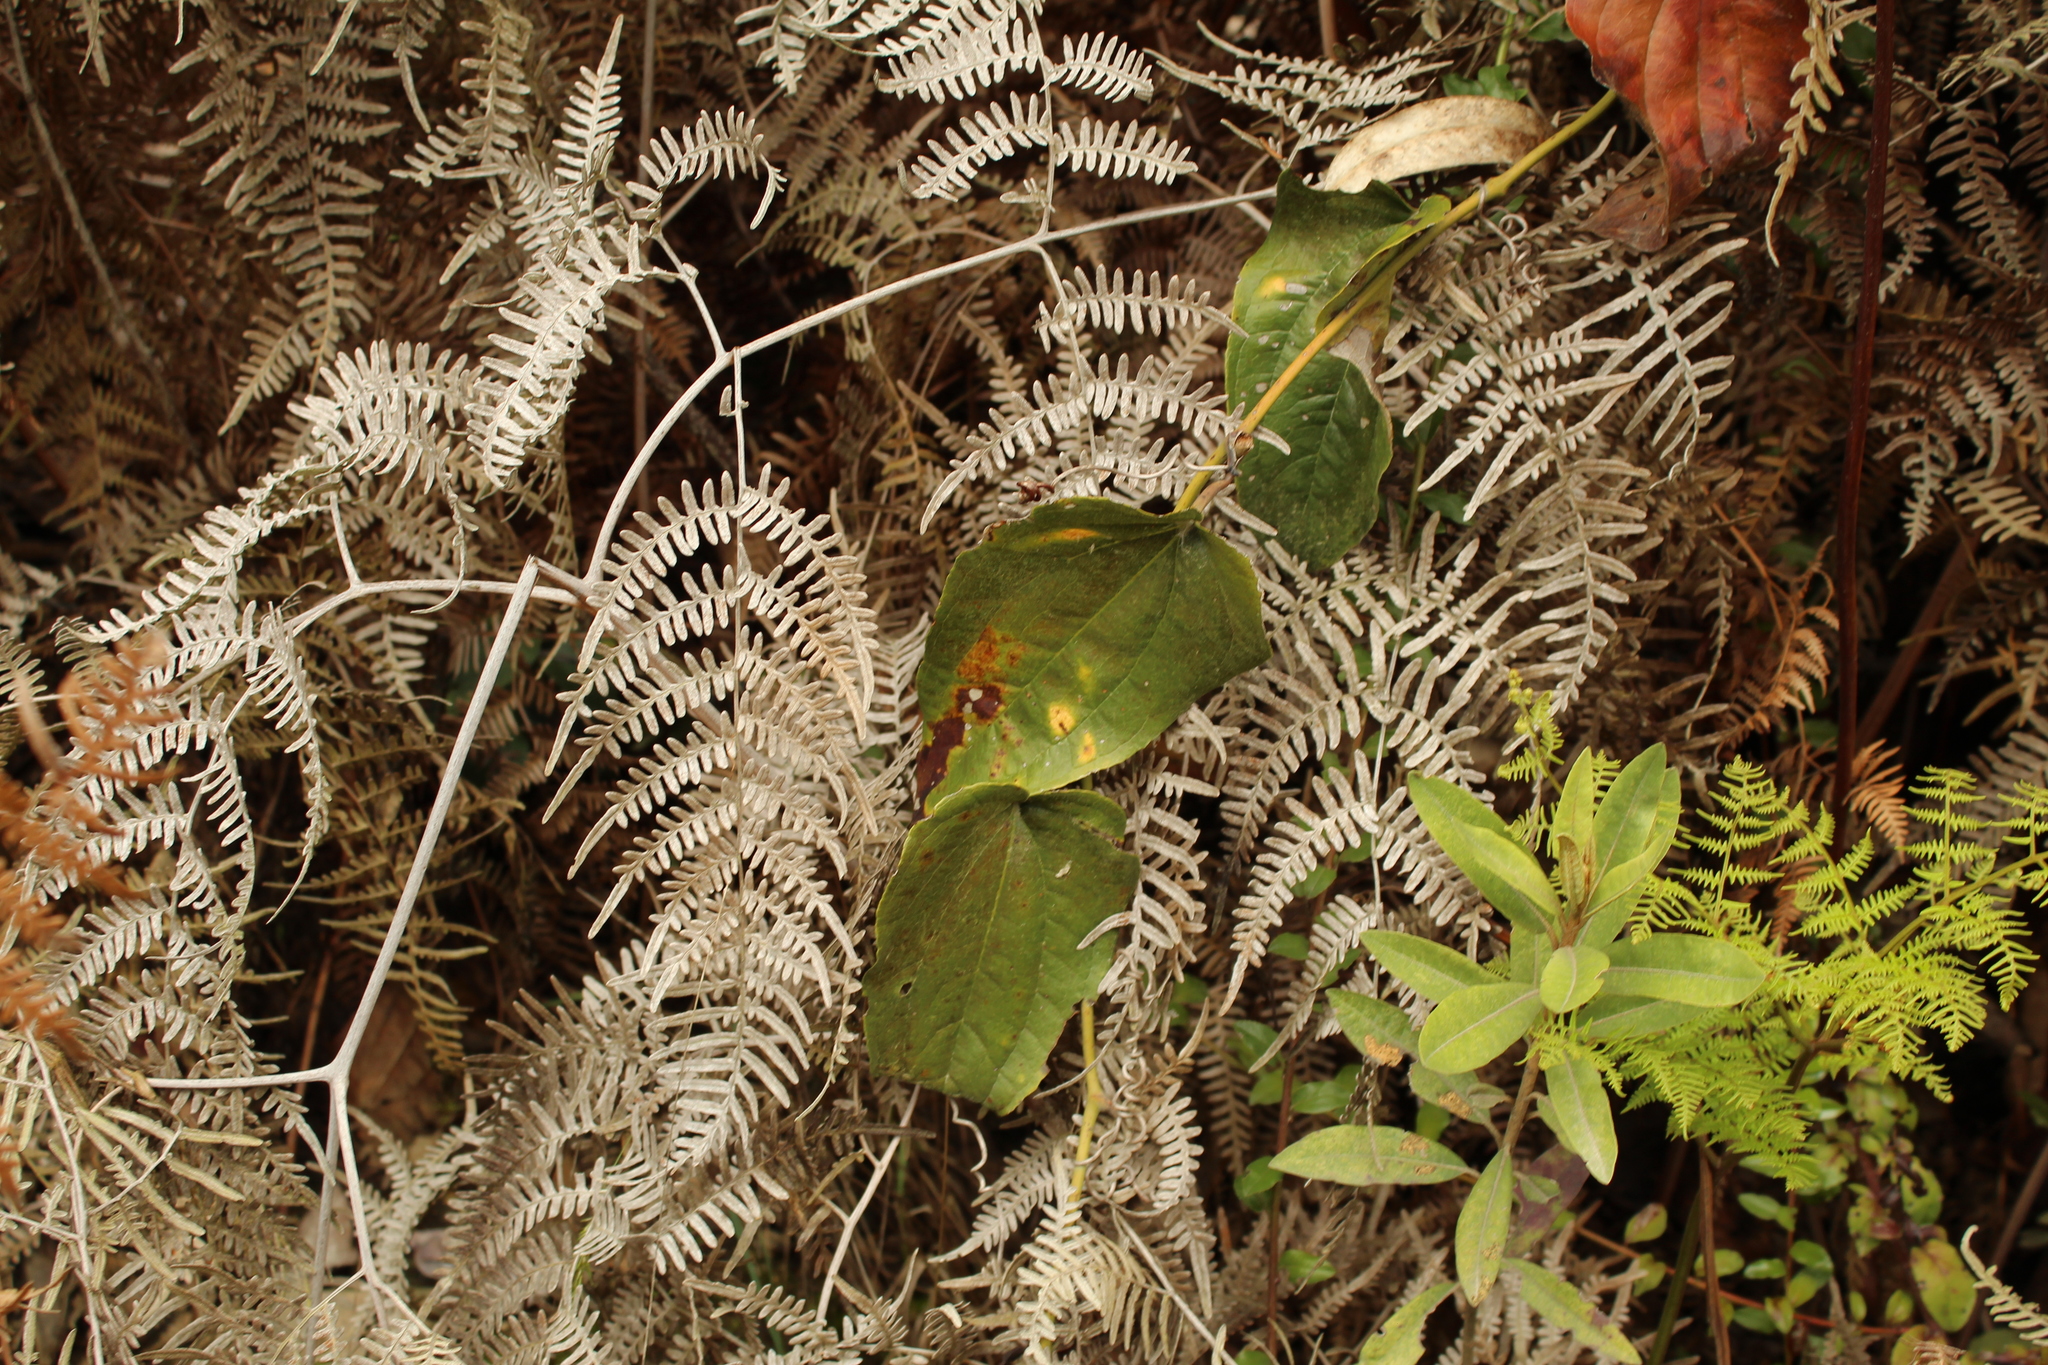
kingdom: Plantae
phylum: Tracheophyta
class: Liliopsida
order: Liliales
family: Smilacaceae
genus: Smilax
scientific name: Smilax tomentosa
